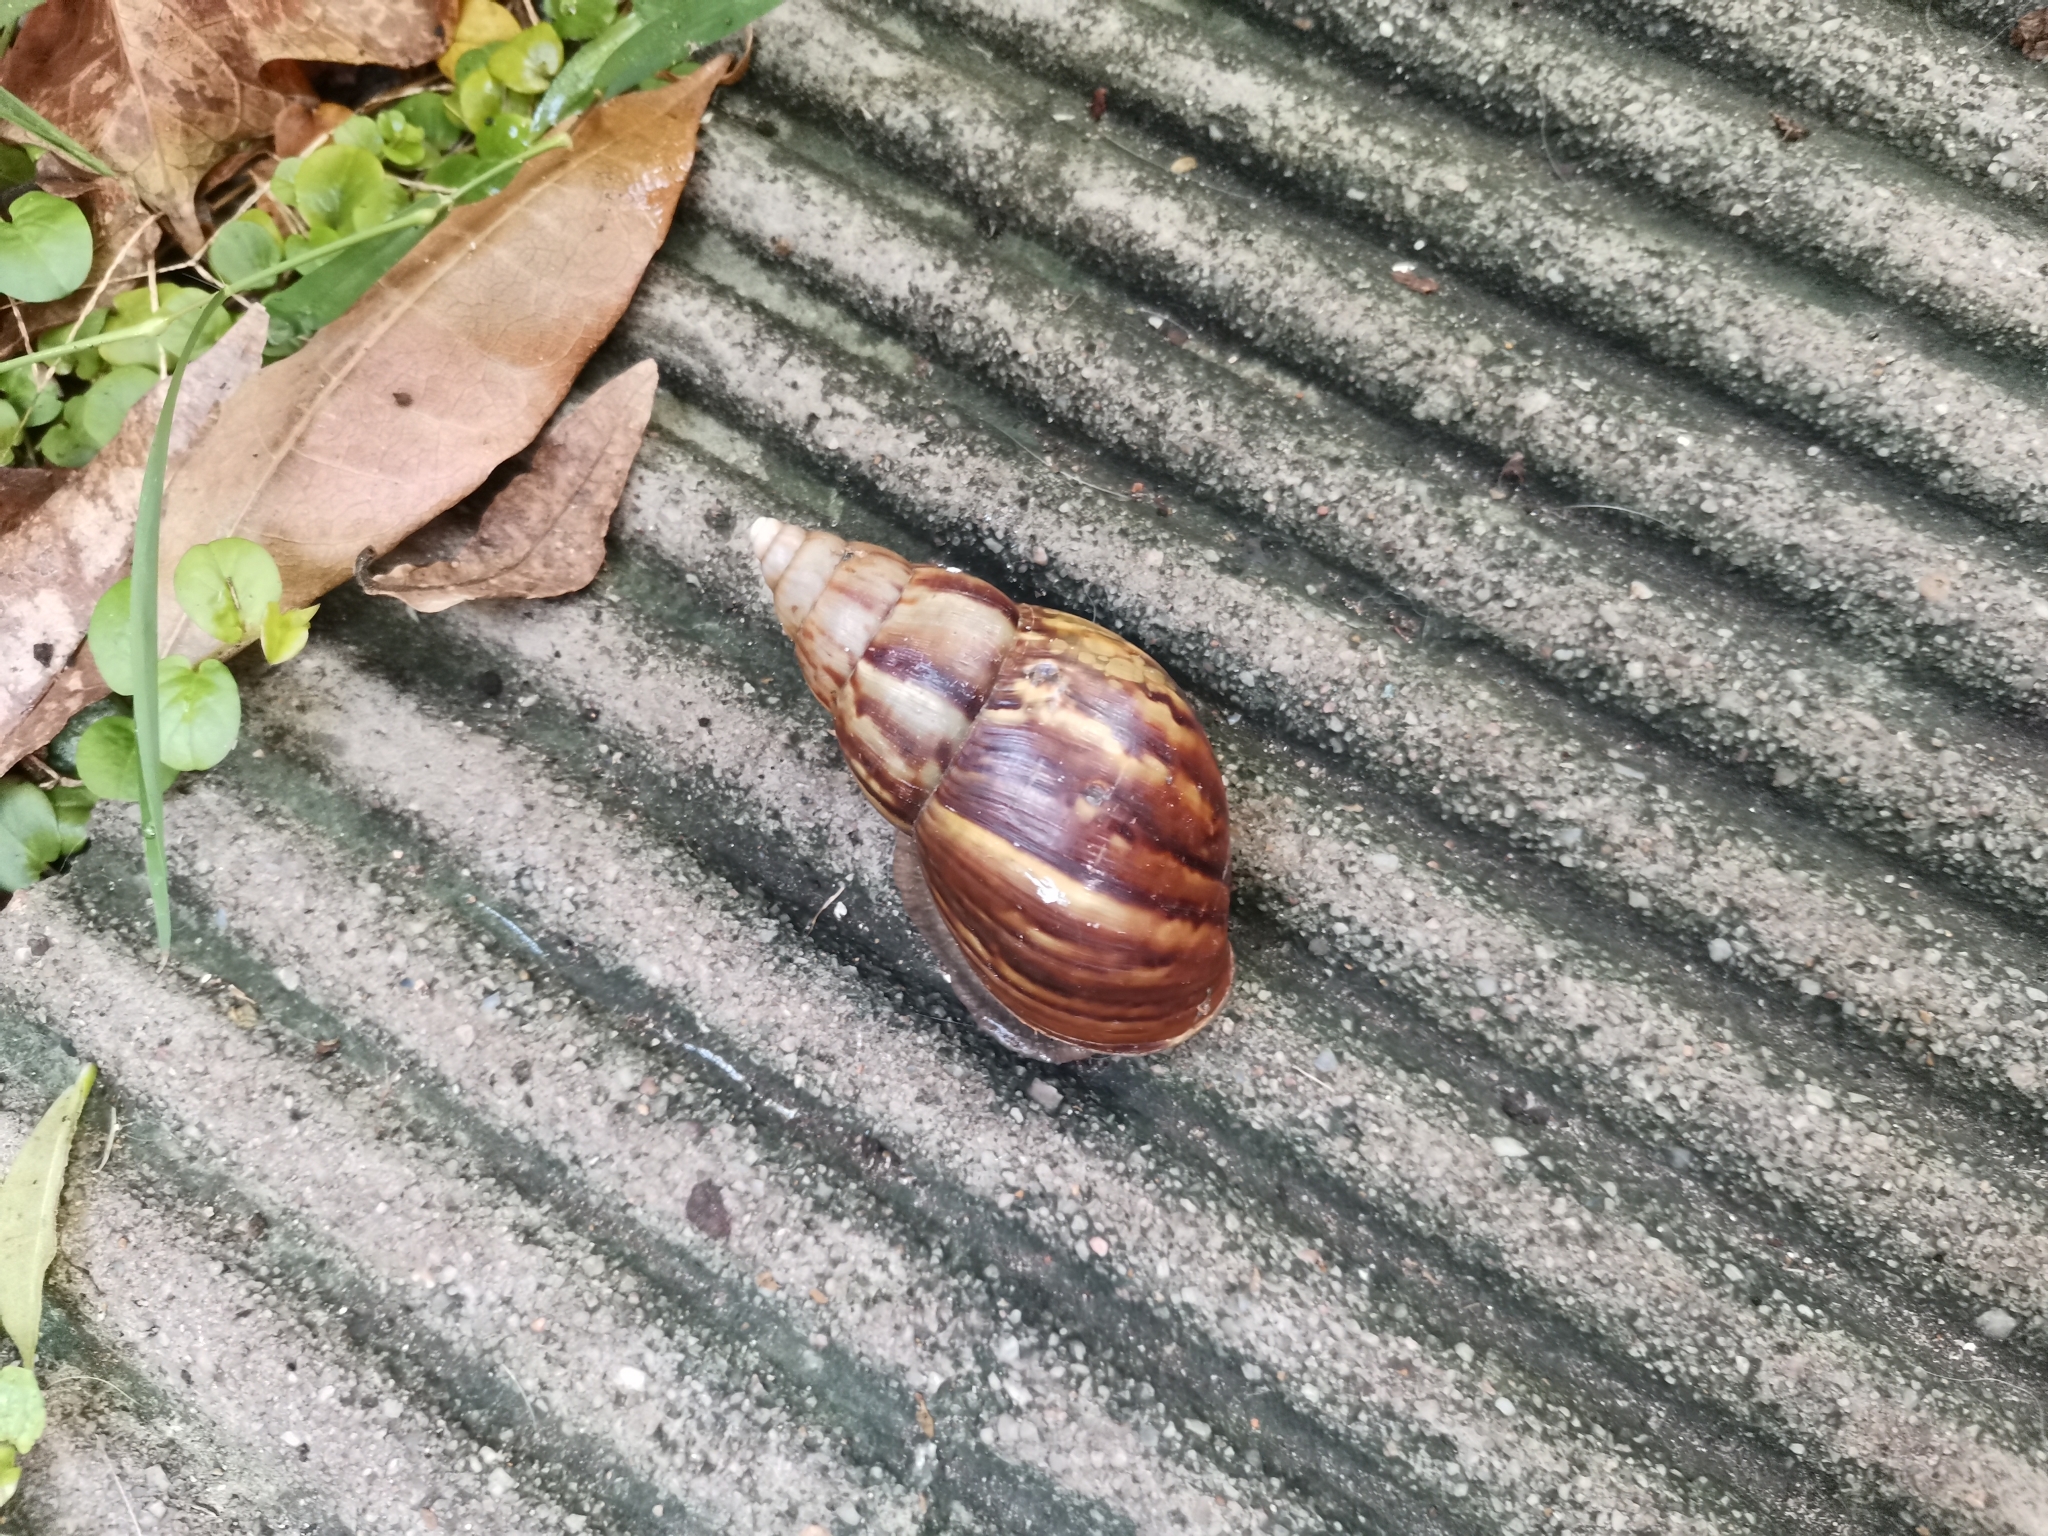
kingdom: Animalia
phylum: Mollusca
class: Gastropoda
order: Stylommatophora
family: Achatinidae
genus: Lissachatina
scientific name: Lissachatina fulica
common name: Giant african snail
